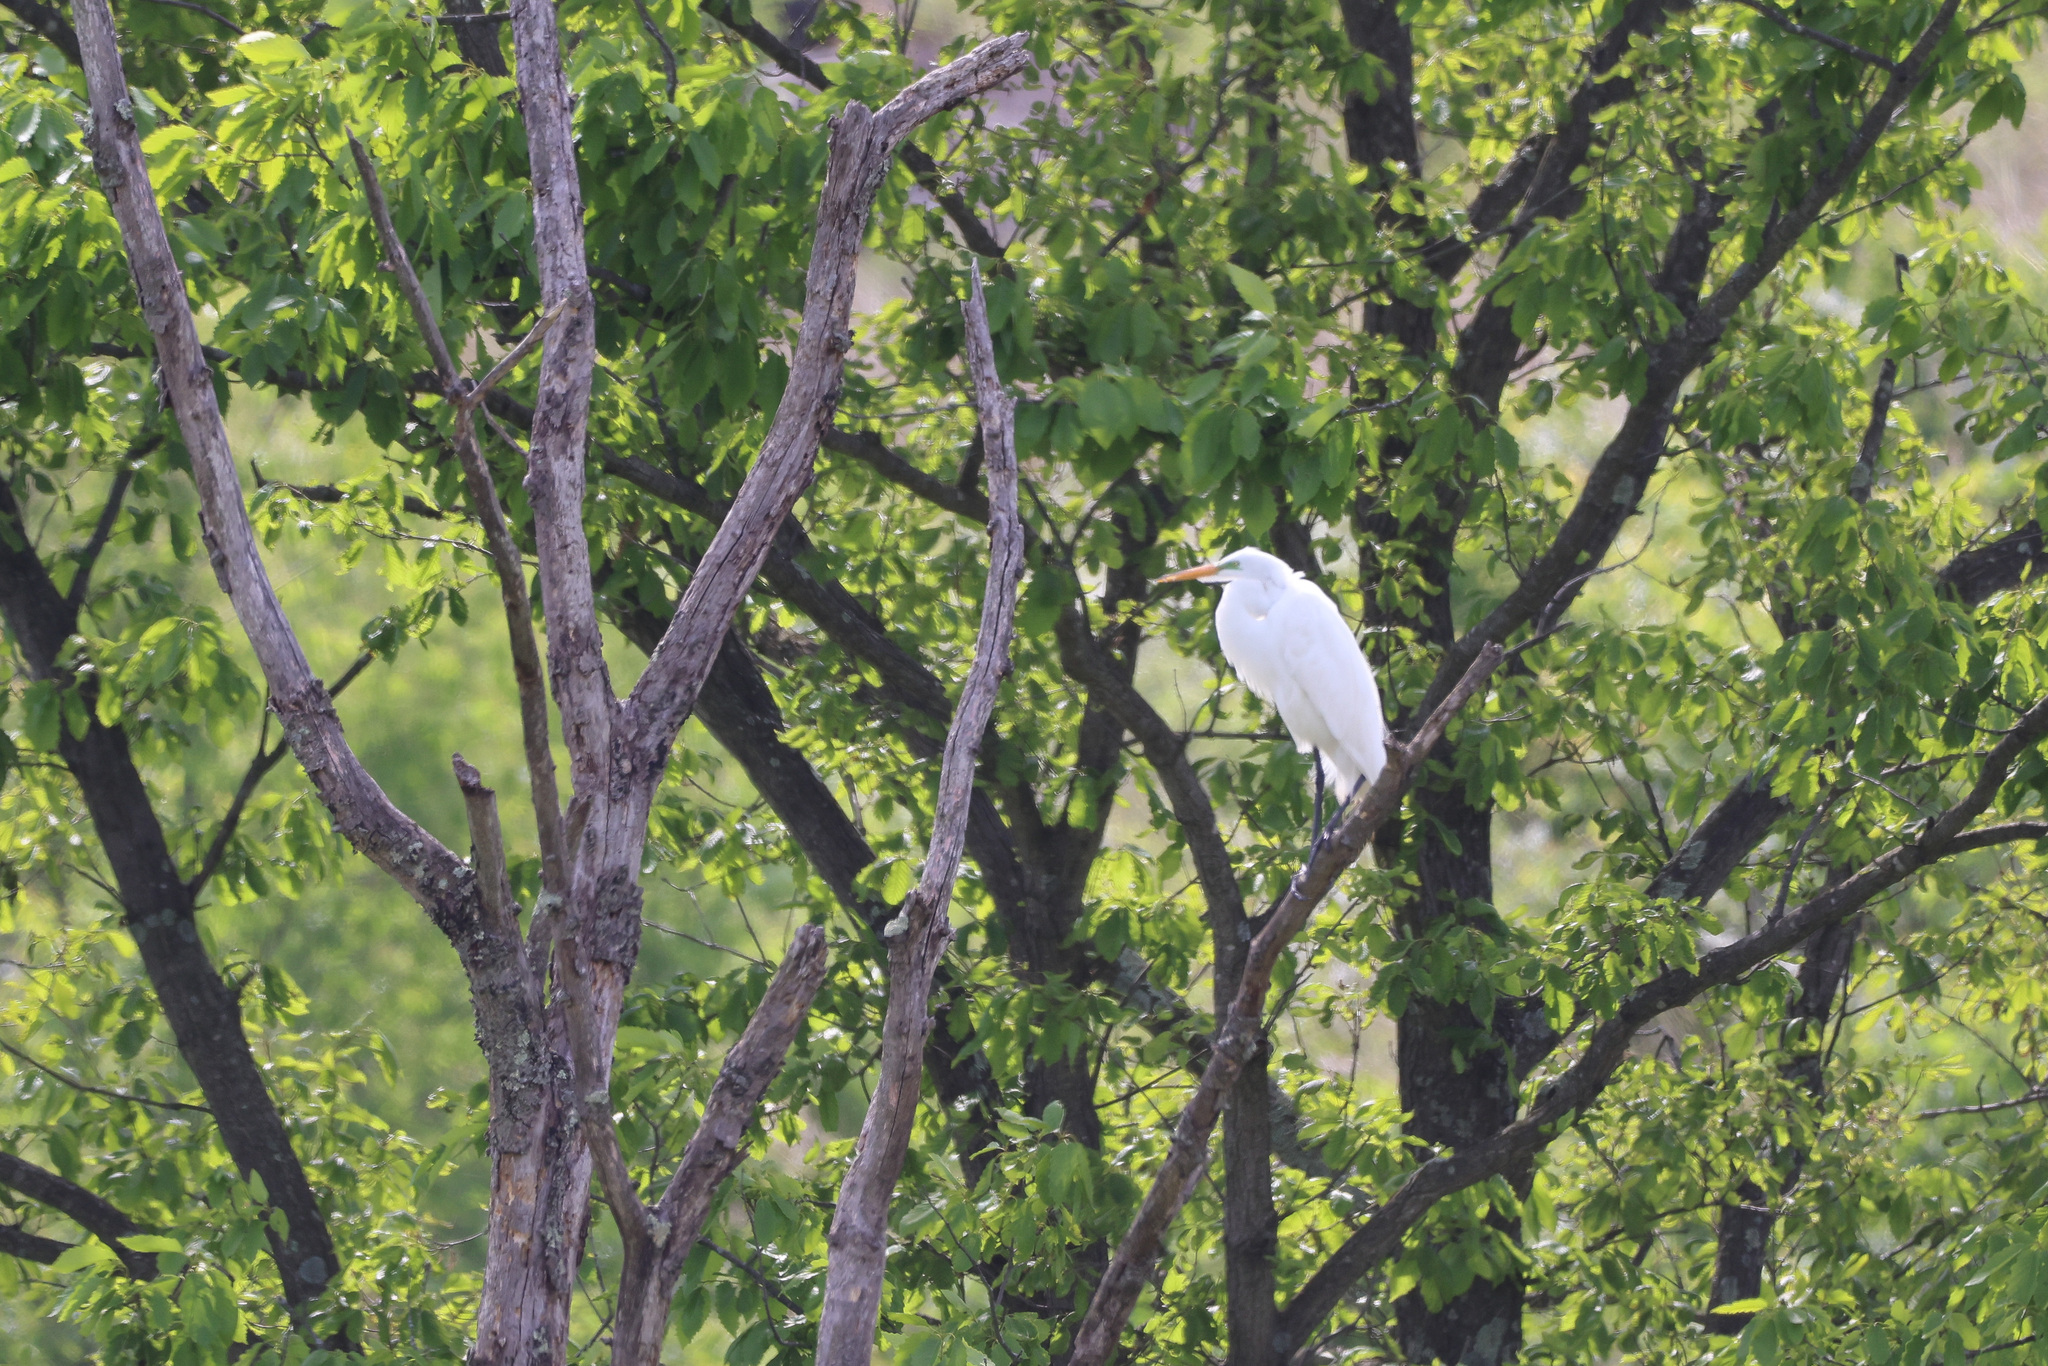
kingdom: Animalia
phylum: Chordata
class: Aves
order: Pelecaniformes
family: Ardeidae
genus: Ardea
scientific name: Ardea alba
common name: Great egret
